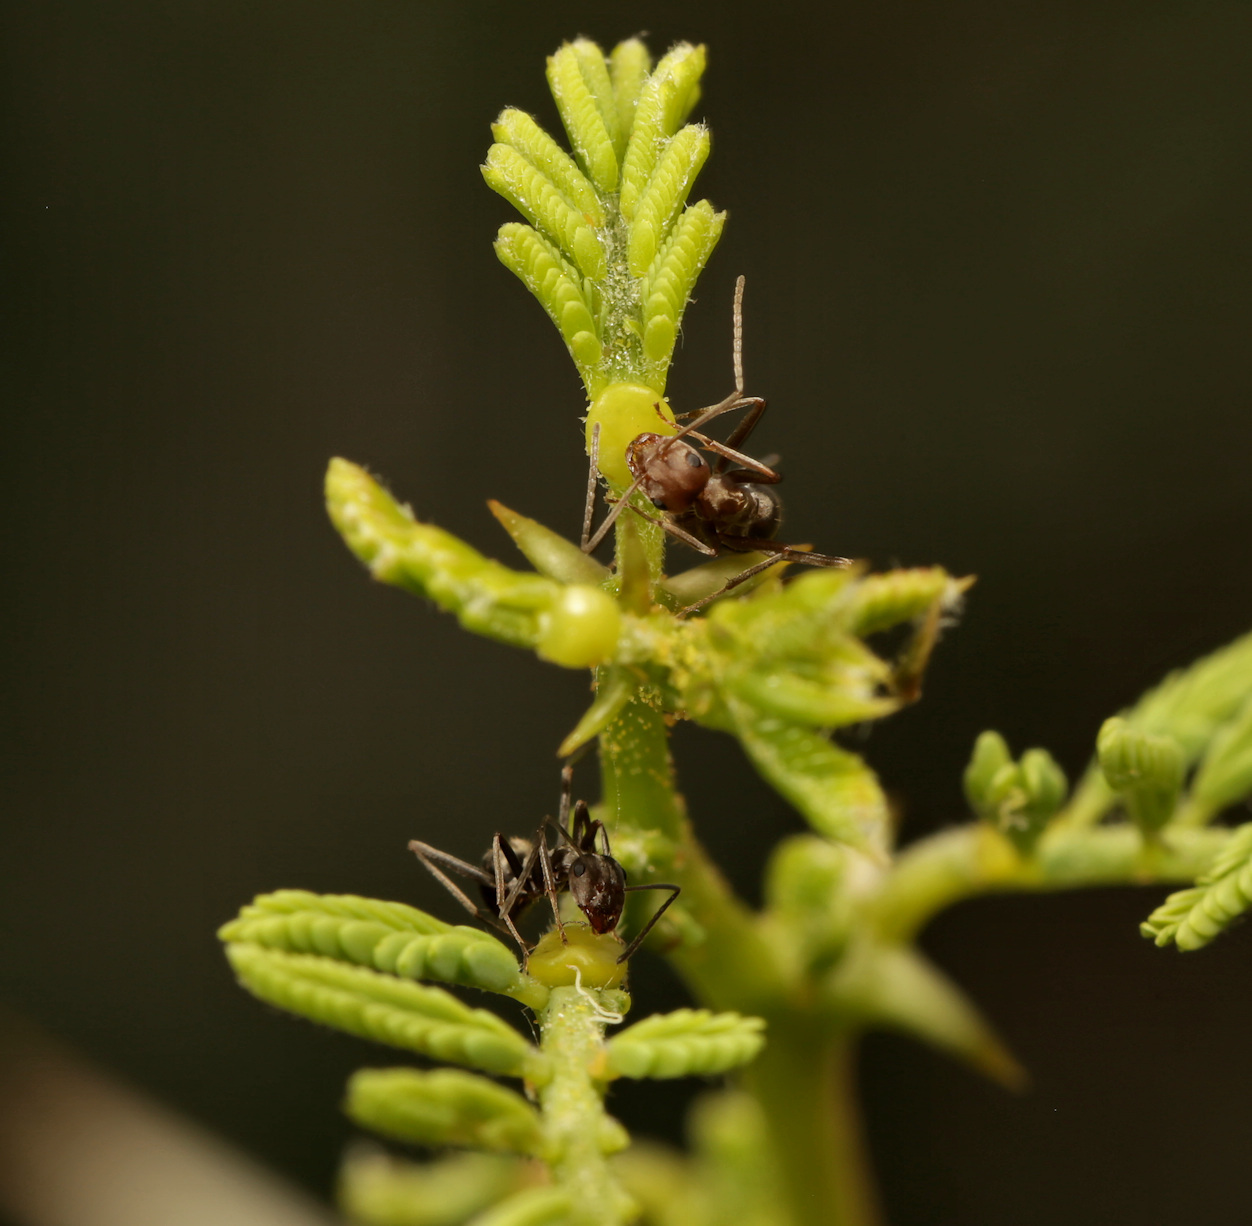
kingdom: Animalia
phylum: Arthropoda
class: Insecta
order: Hymenoptera
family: Formicidae
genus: Anoplolepis
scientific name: Anoplolepis custodiens
